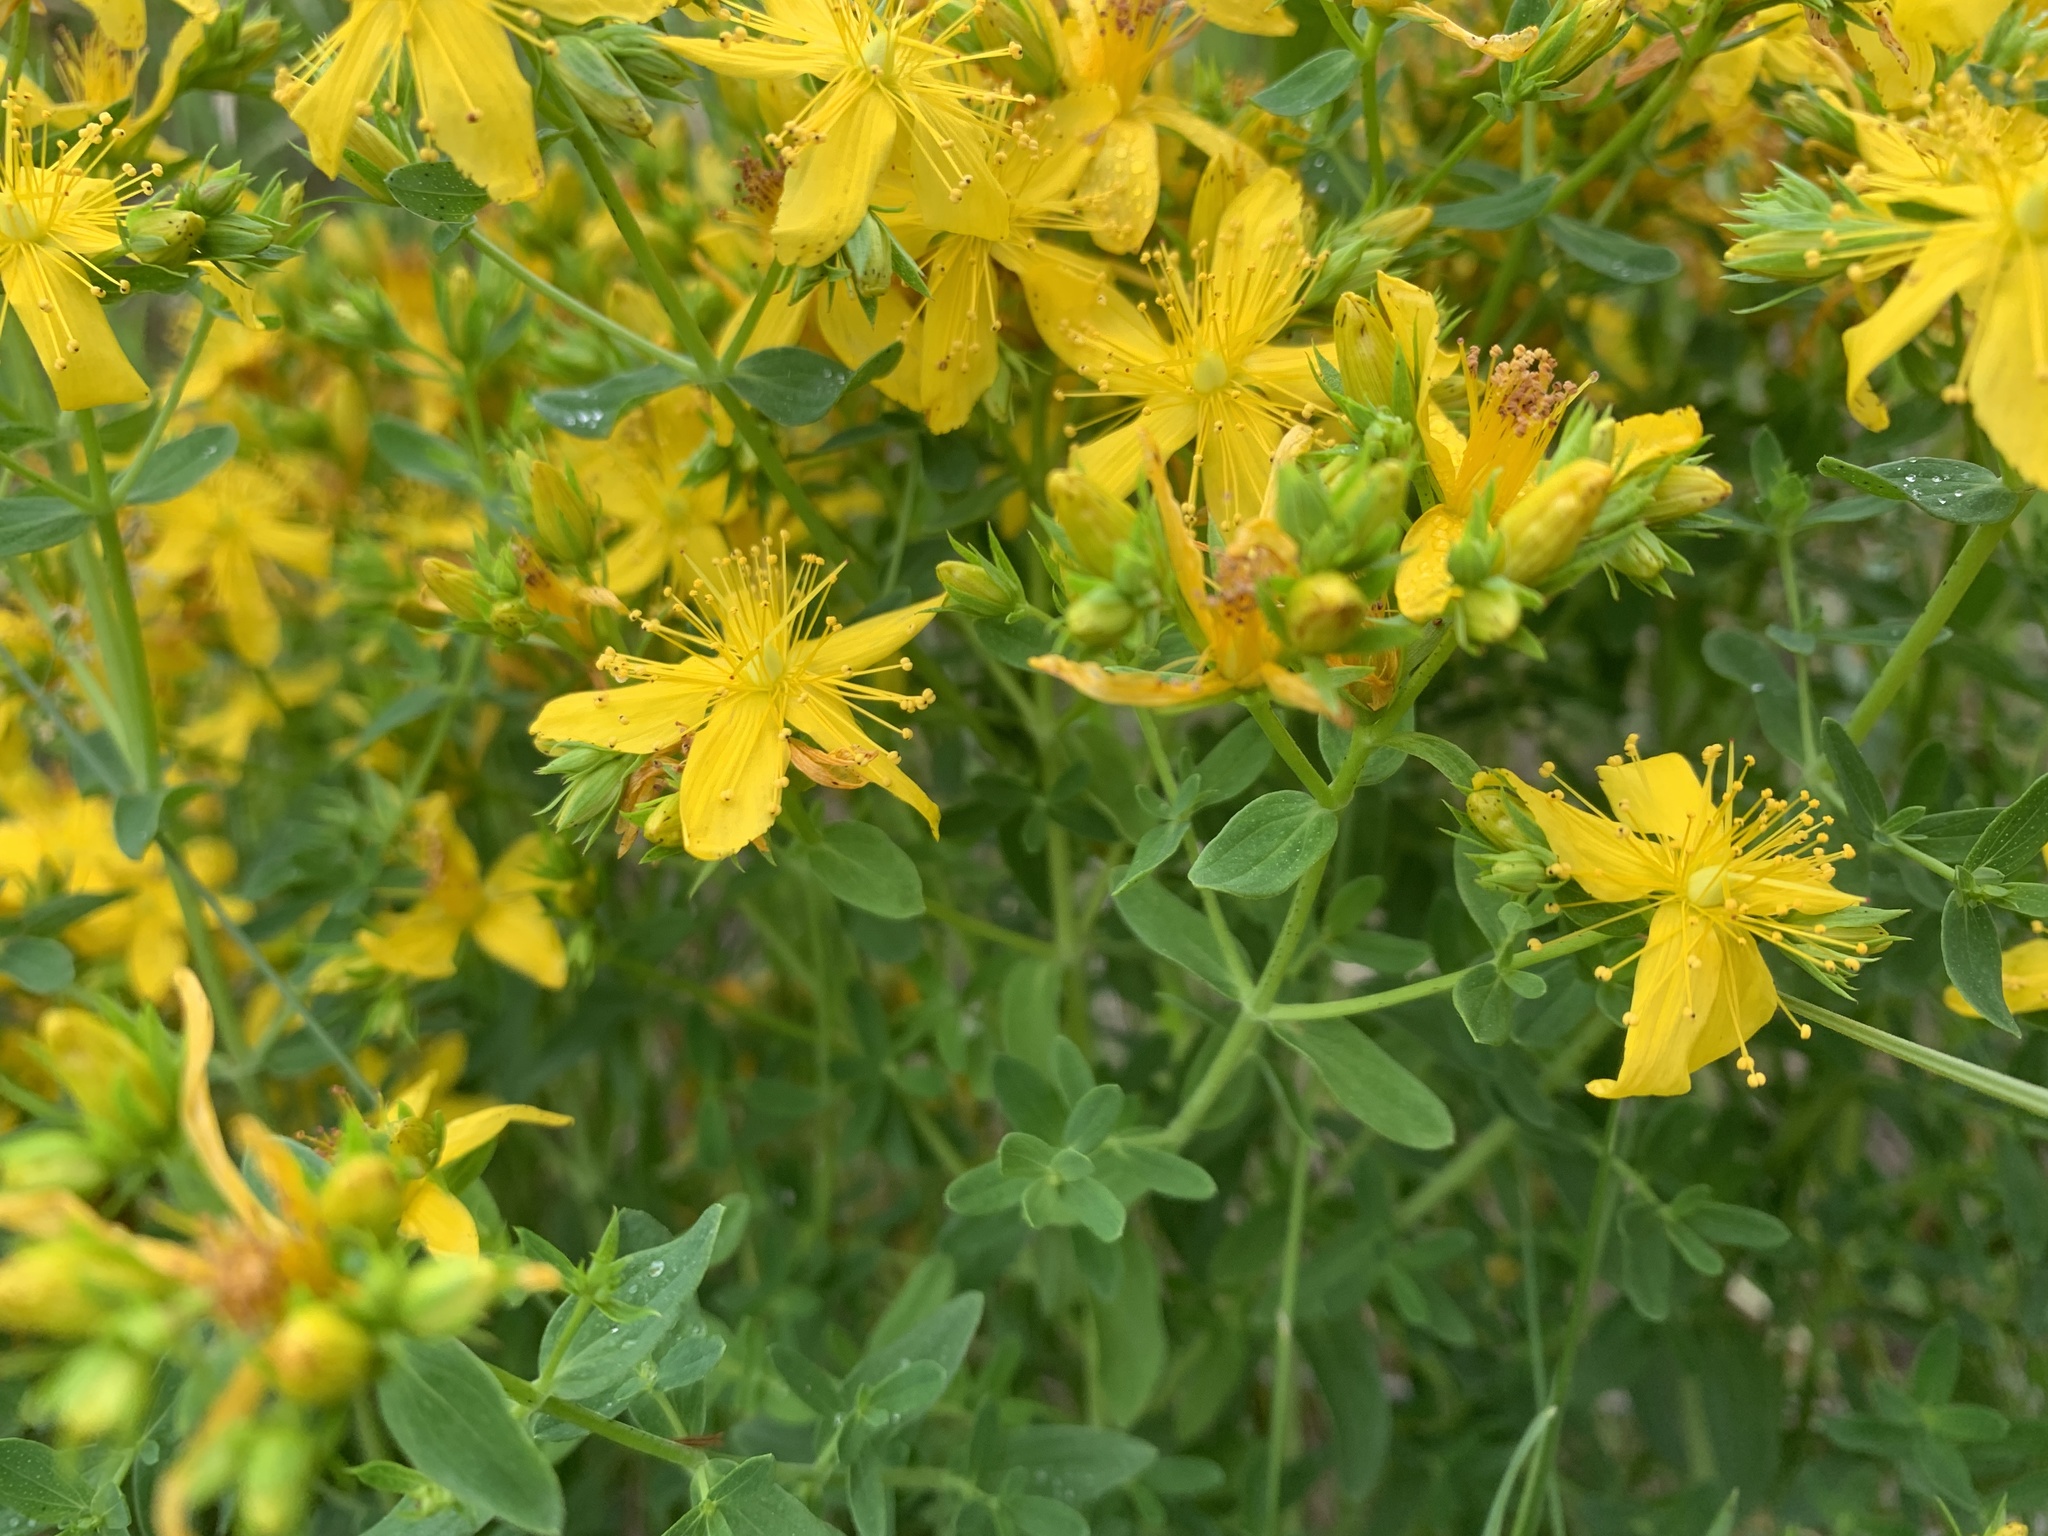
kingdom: Plantae
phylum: Tracheophyta
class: Magnoliopsida
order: Malpighiales
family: Hypericaceae
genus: Hypericum
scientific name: Hypericum perforatum
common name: Common st. johnswort
